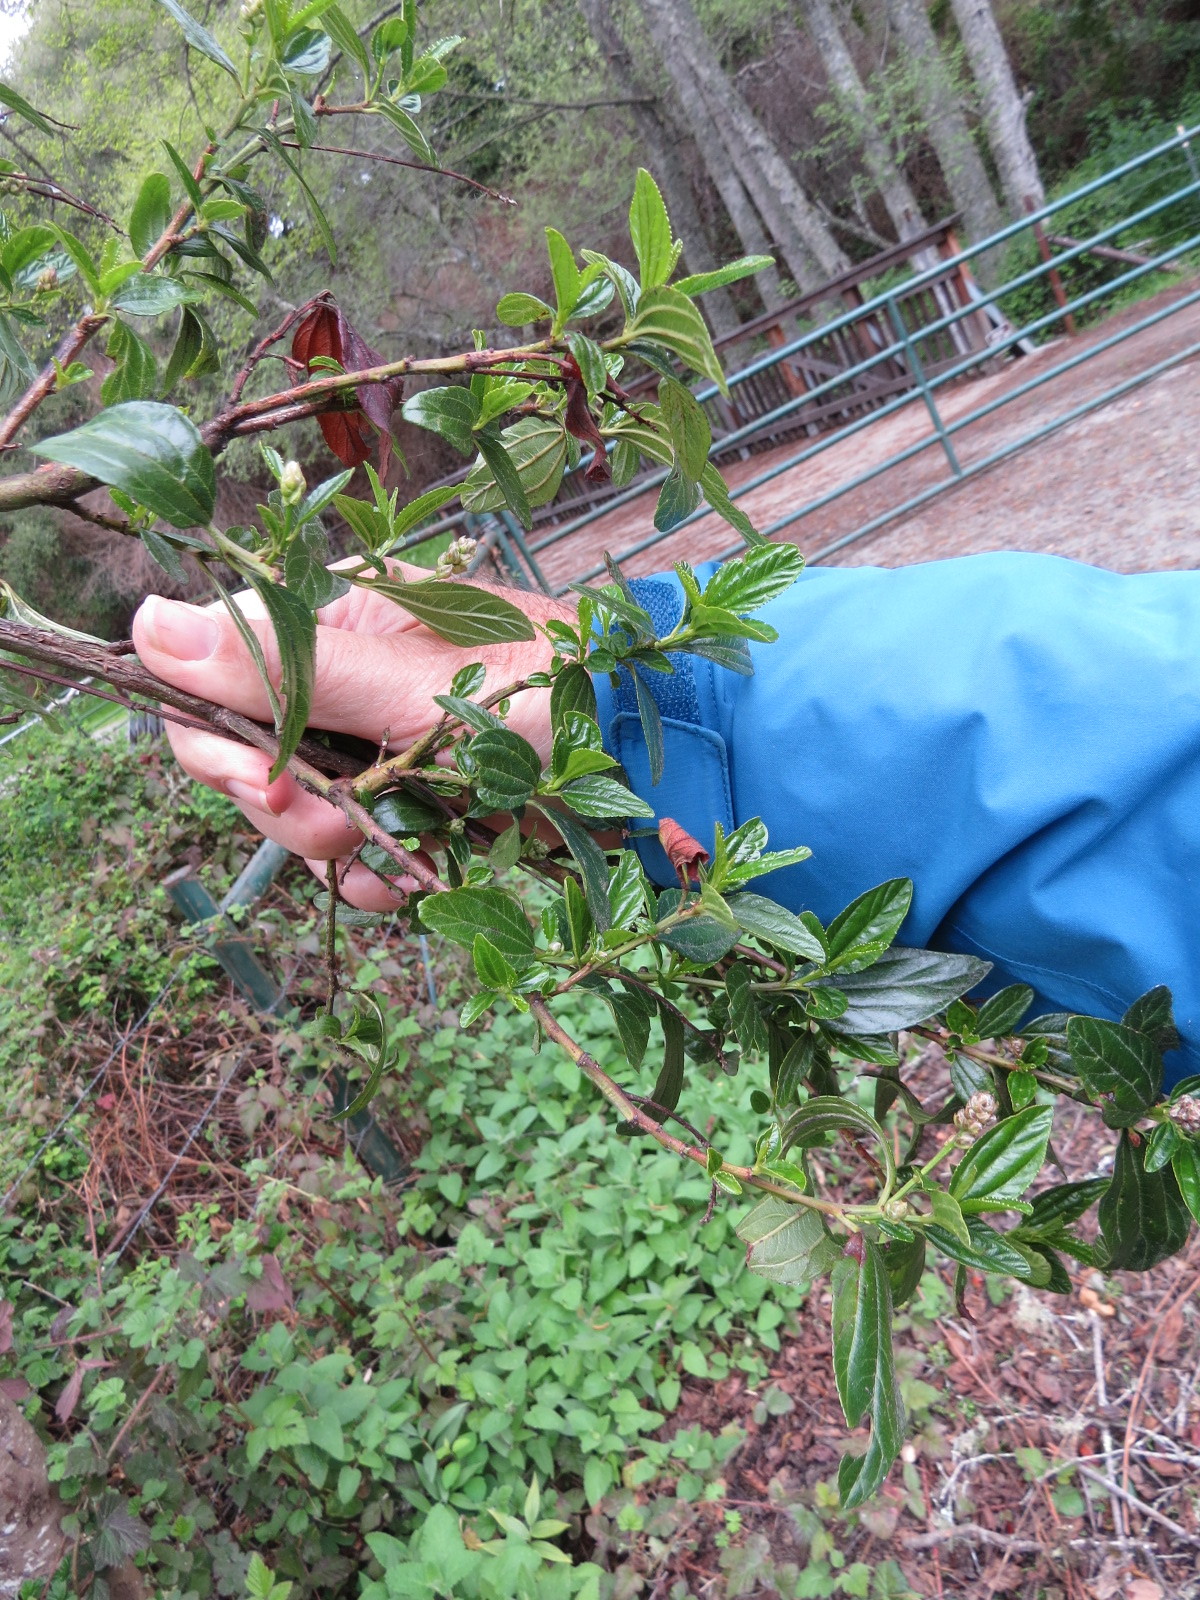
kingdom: Animalia
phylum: Arthropoda
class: Insecta
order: Lepidoptera
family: Cosmopterigidae
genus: Periploca
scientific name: Periploca ceanothiella
